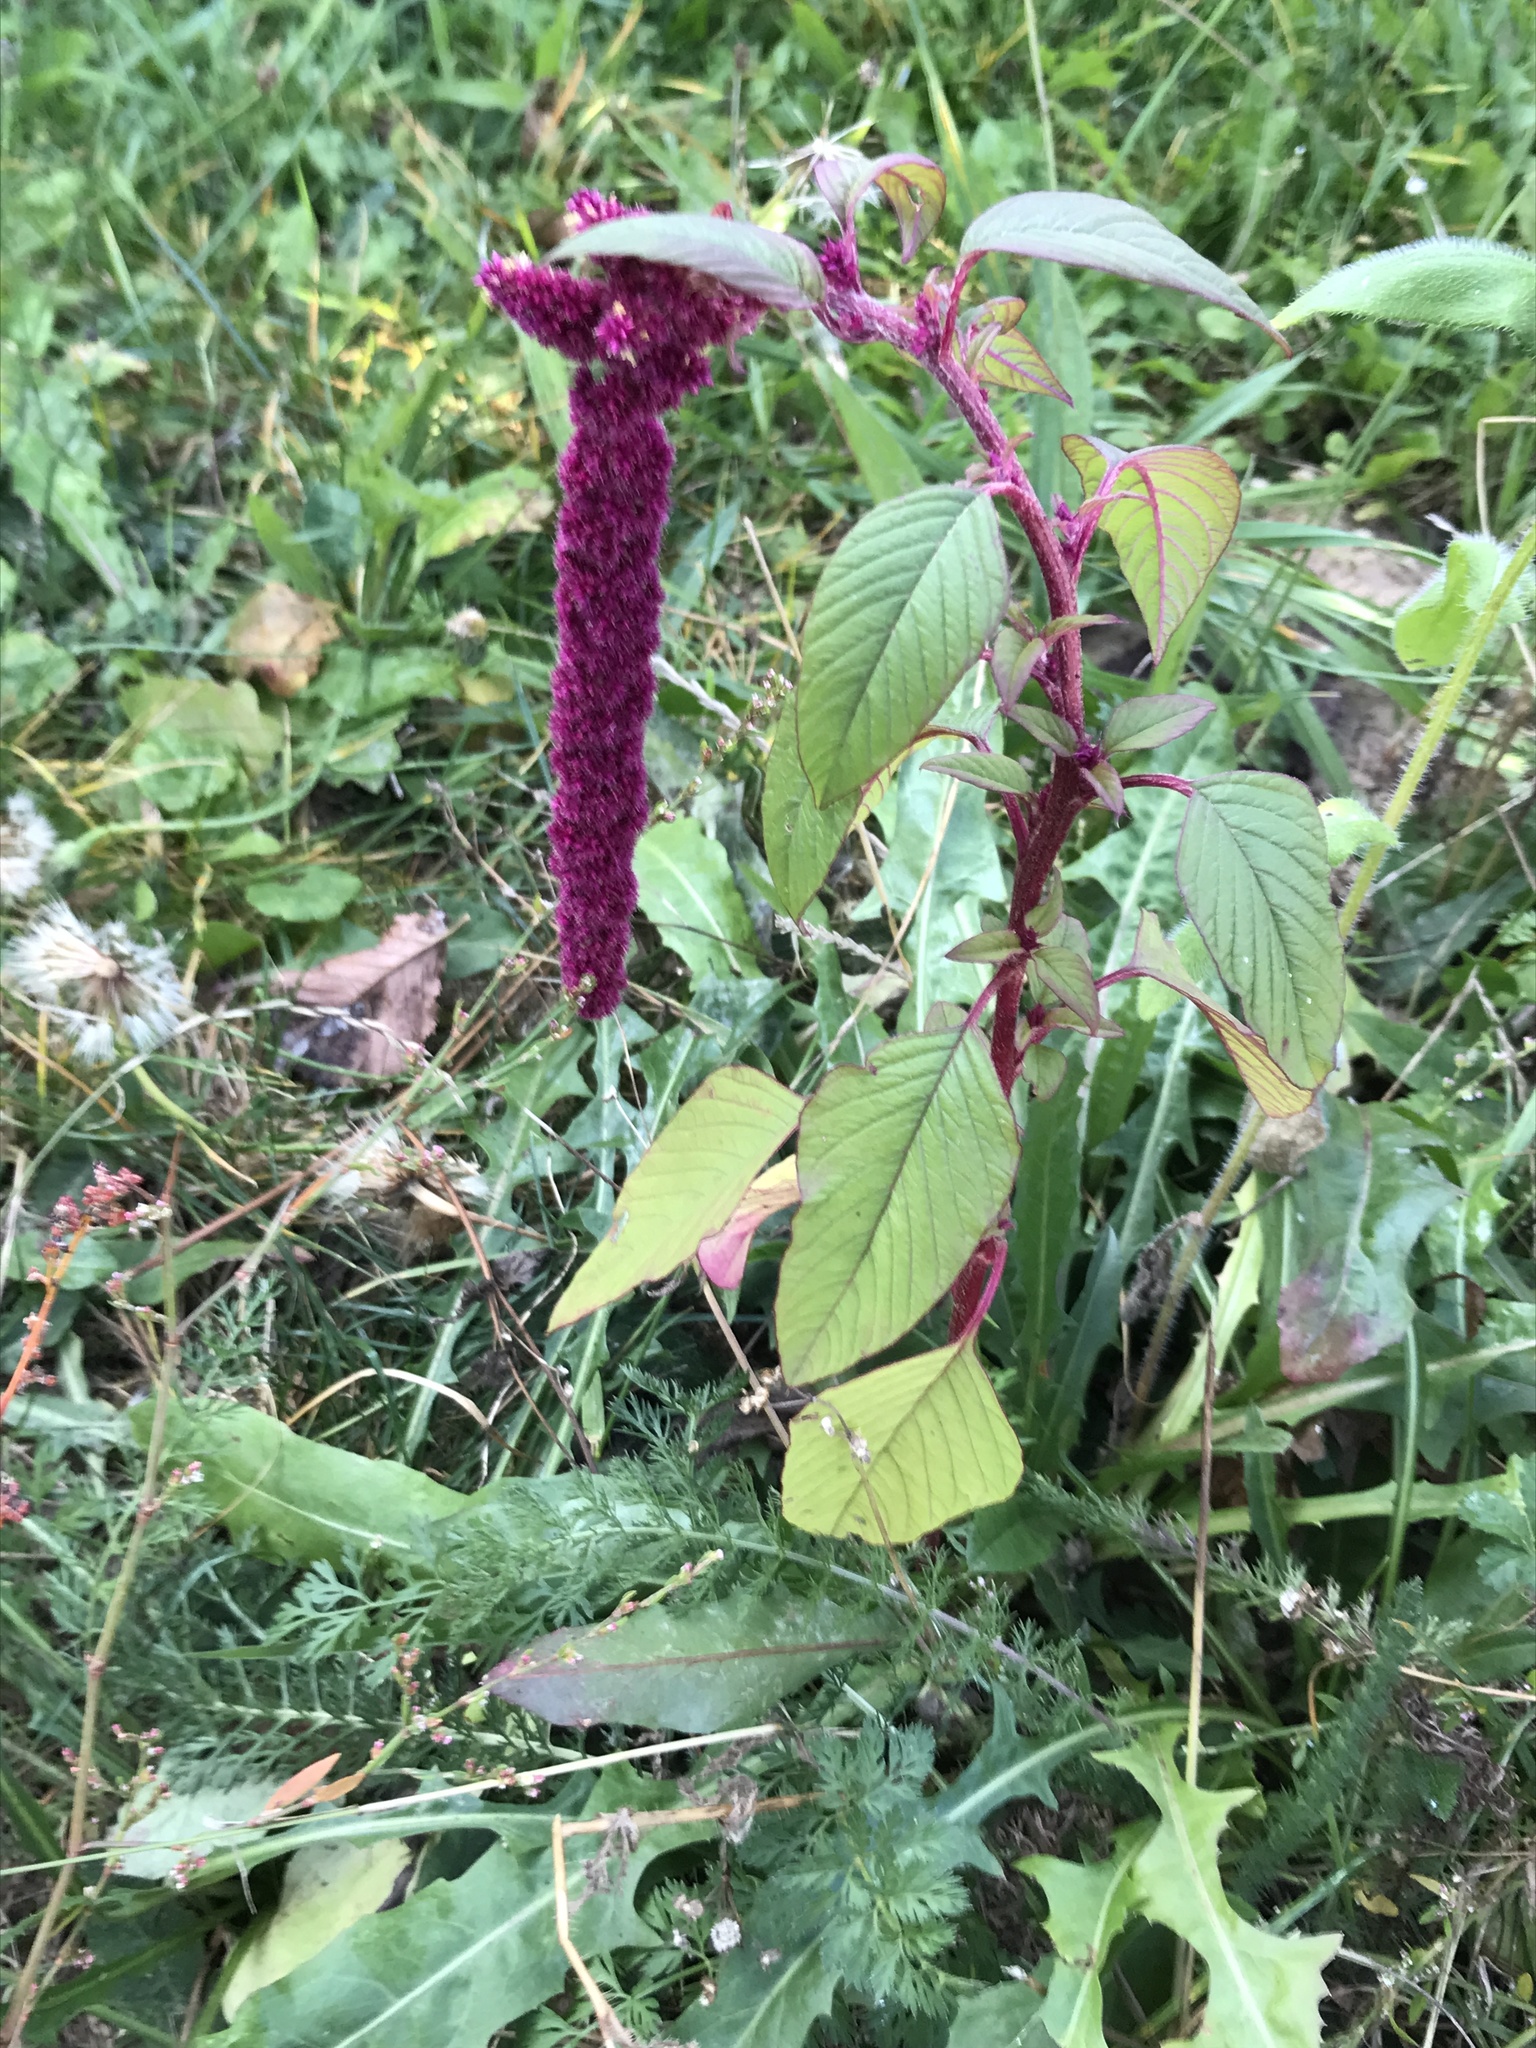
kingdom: Plantae
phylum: Tracheophyta
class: Magnoliopsida
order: Caryophyllales
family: Amaranthaceae
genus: Amaranthus
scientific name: Amaranthus caudatus
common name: Love-lies-bleeding
